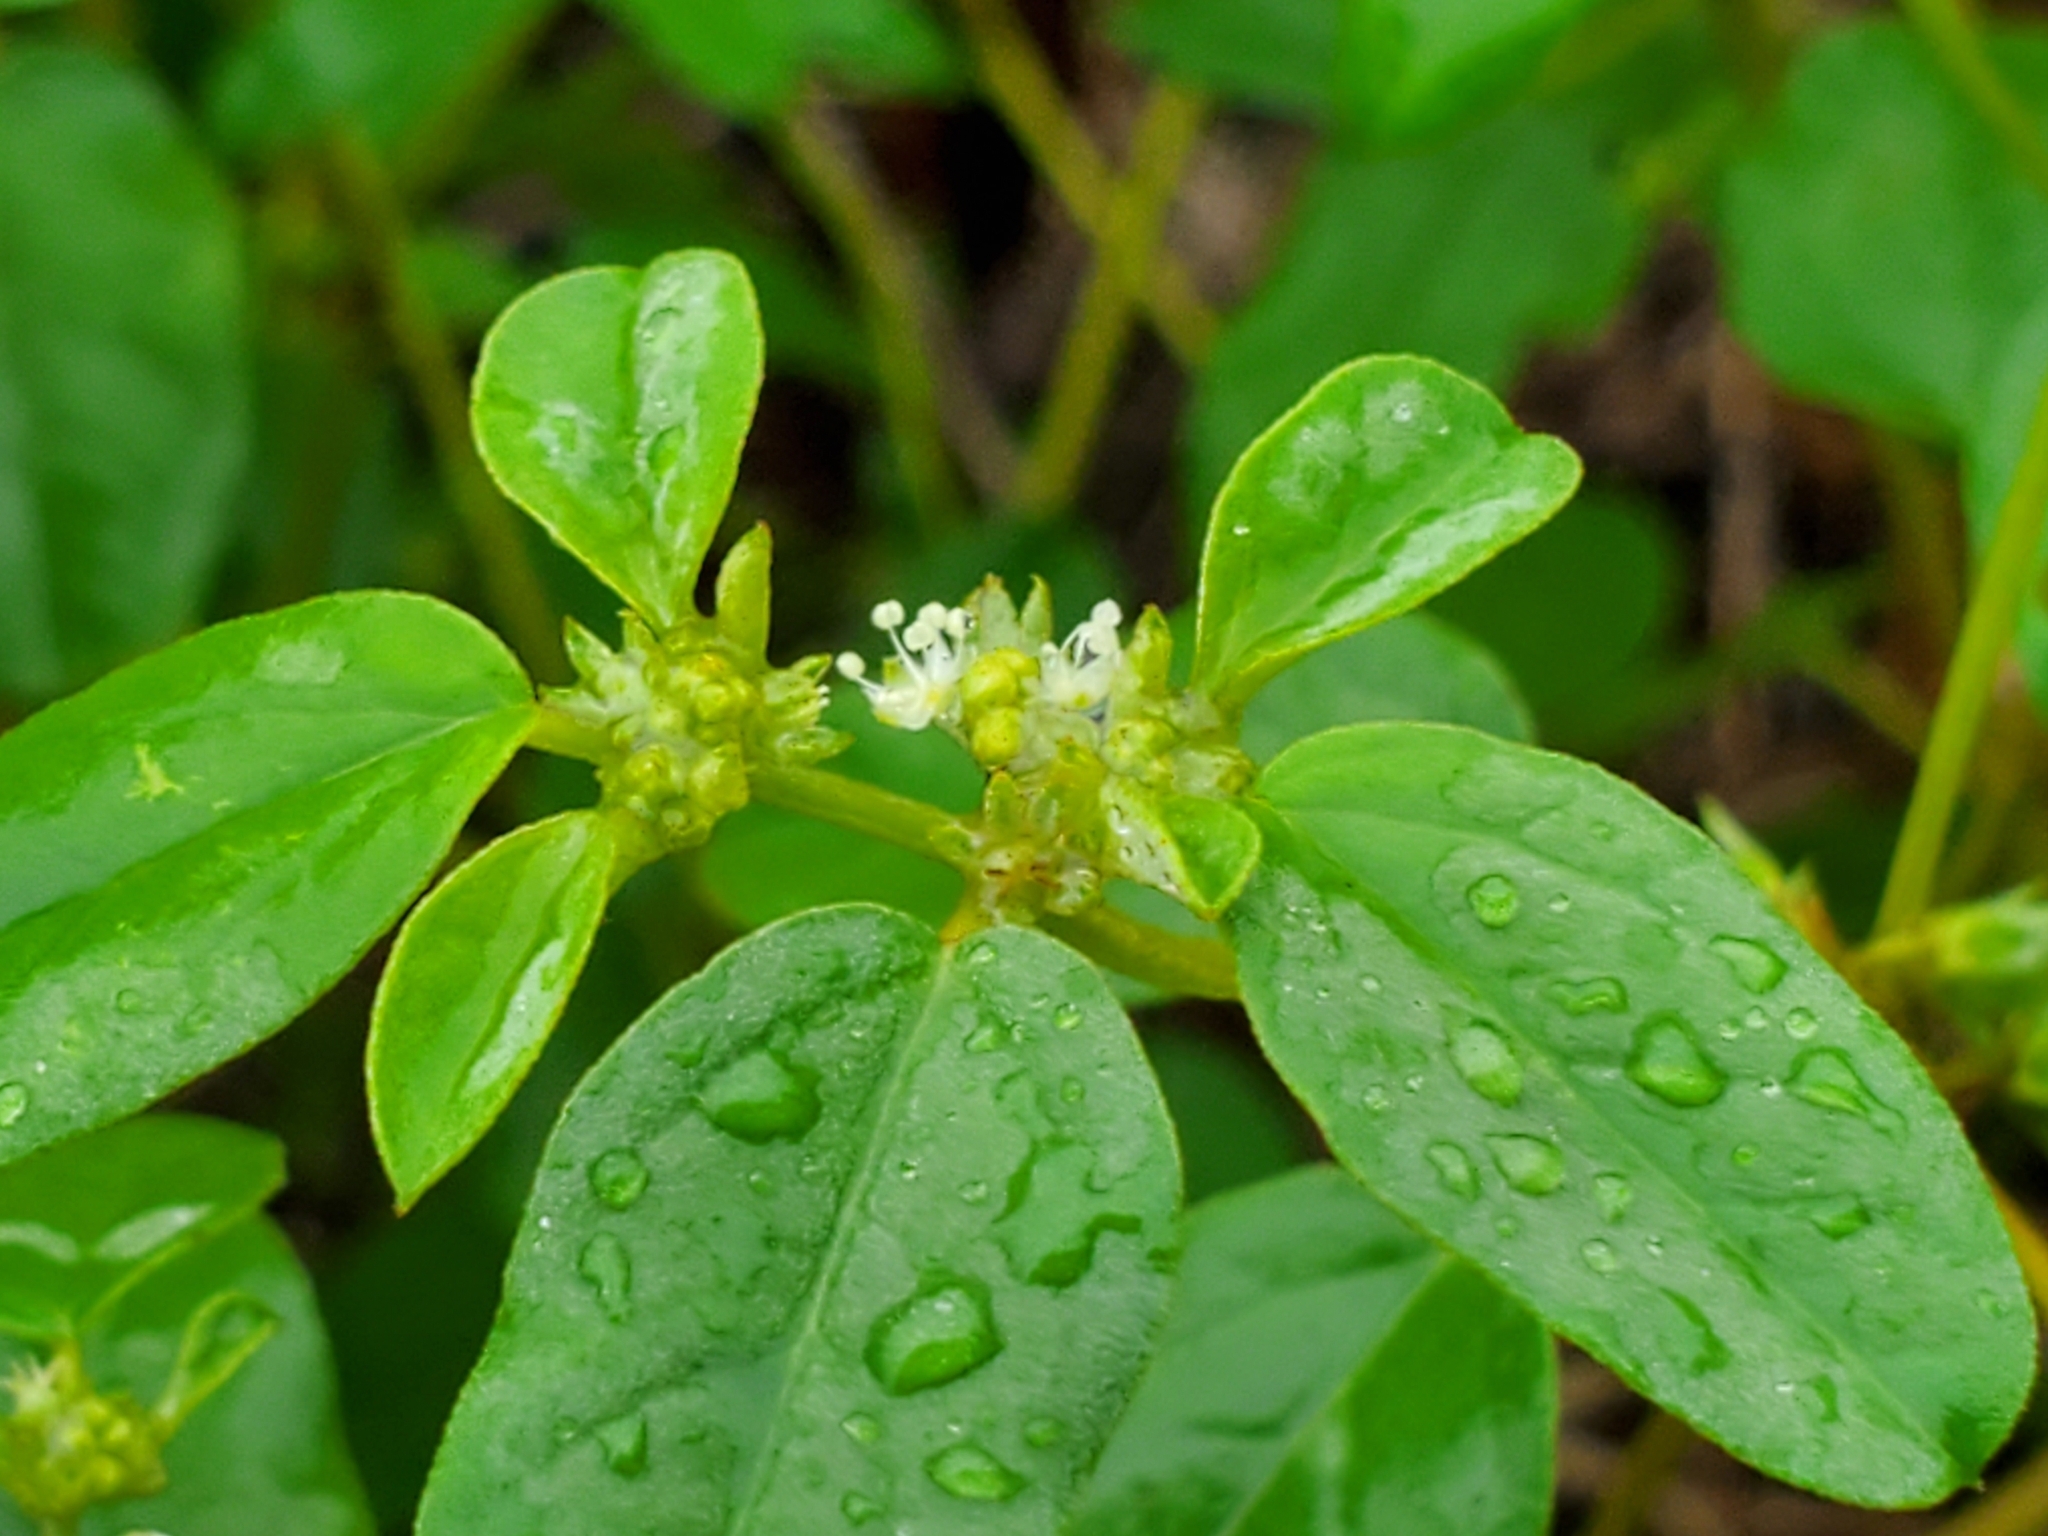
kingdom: Plantae
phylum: Tracheophyta
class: Magnoliopsida
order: Malpighiales
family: Euphorbiaceae
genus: Croton
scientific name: Croton monanthogynus
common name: One-seed croton
